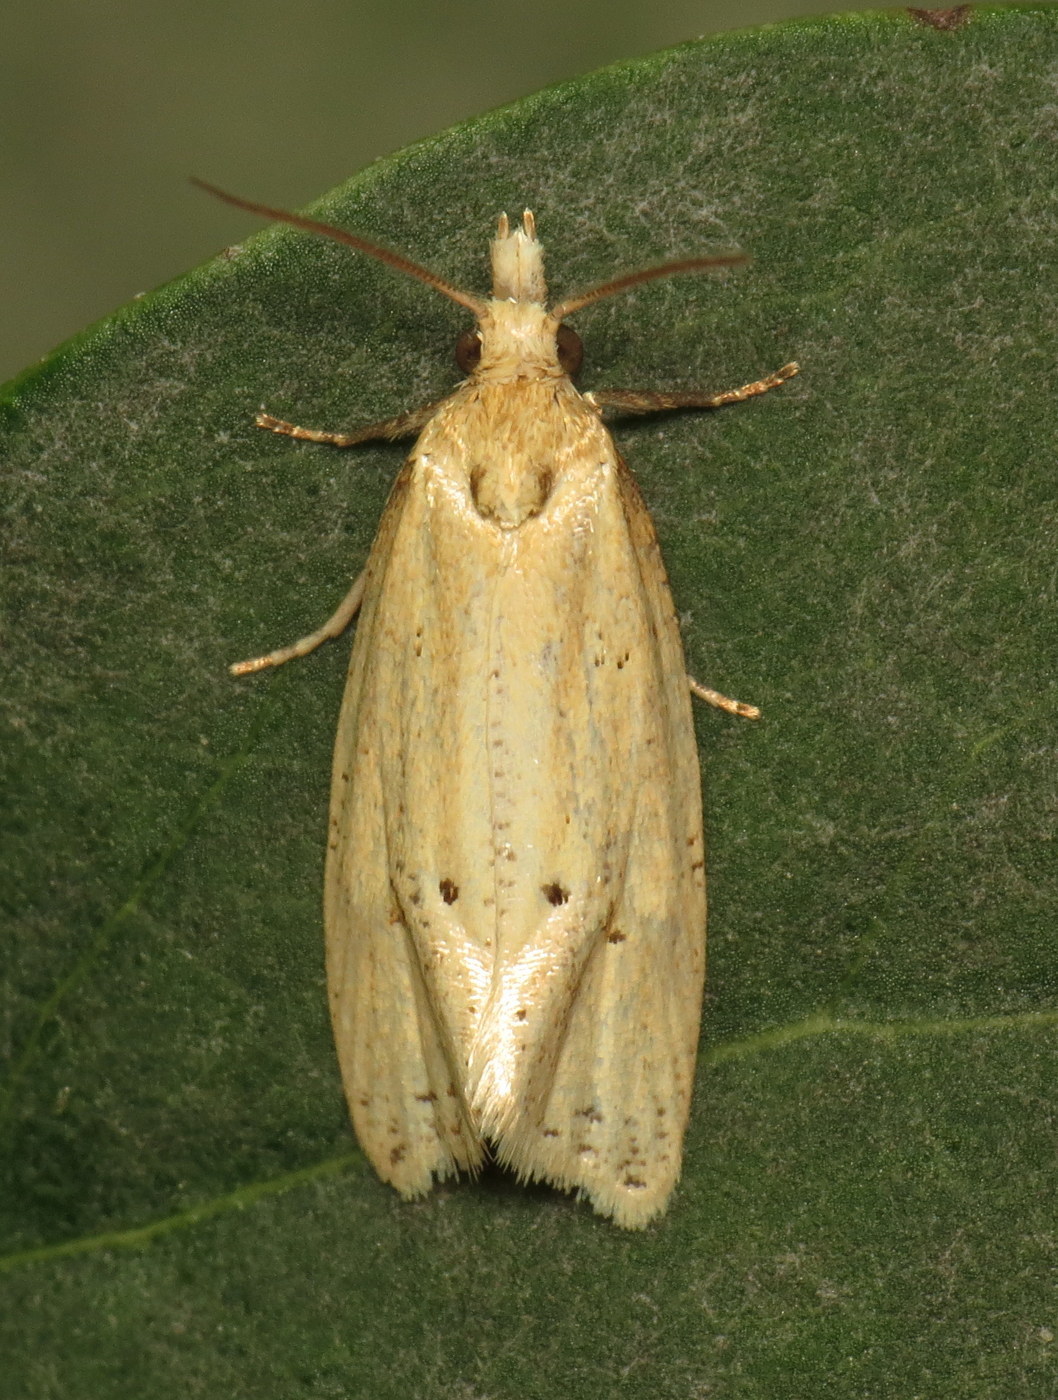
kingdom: Animalia
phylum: Arthropoda
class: Insecta
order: Lepidoptera
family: Tortricidae
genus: Aethes
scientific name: Aethes atomosana
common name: Two-spotted aethes
